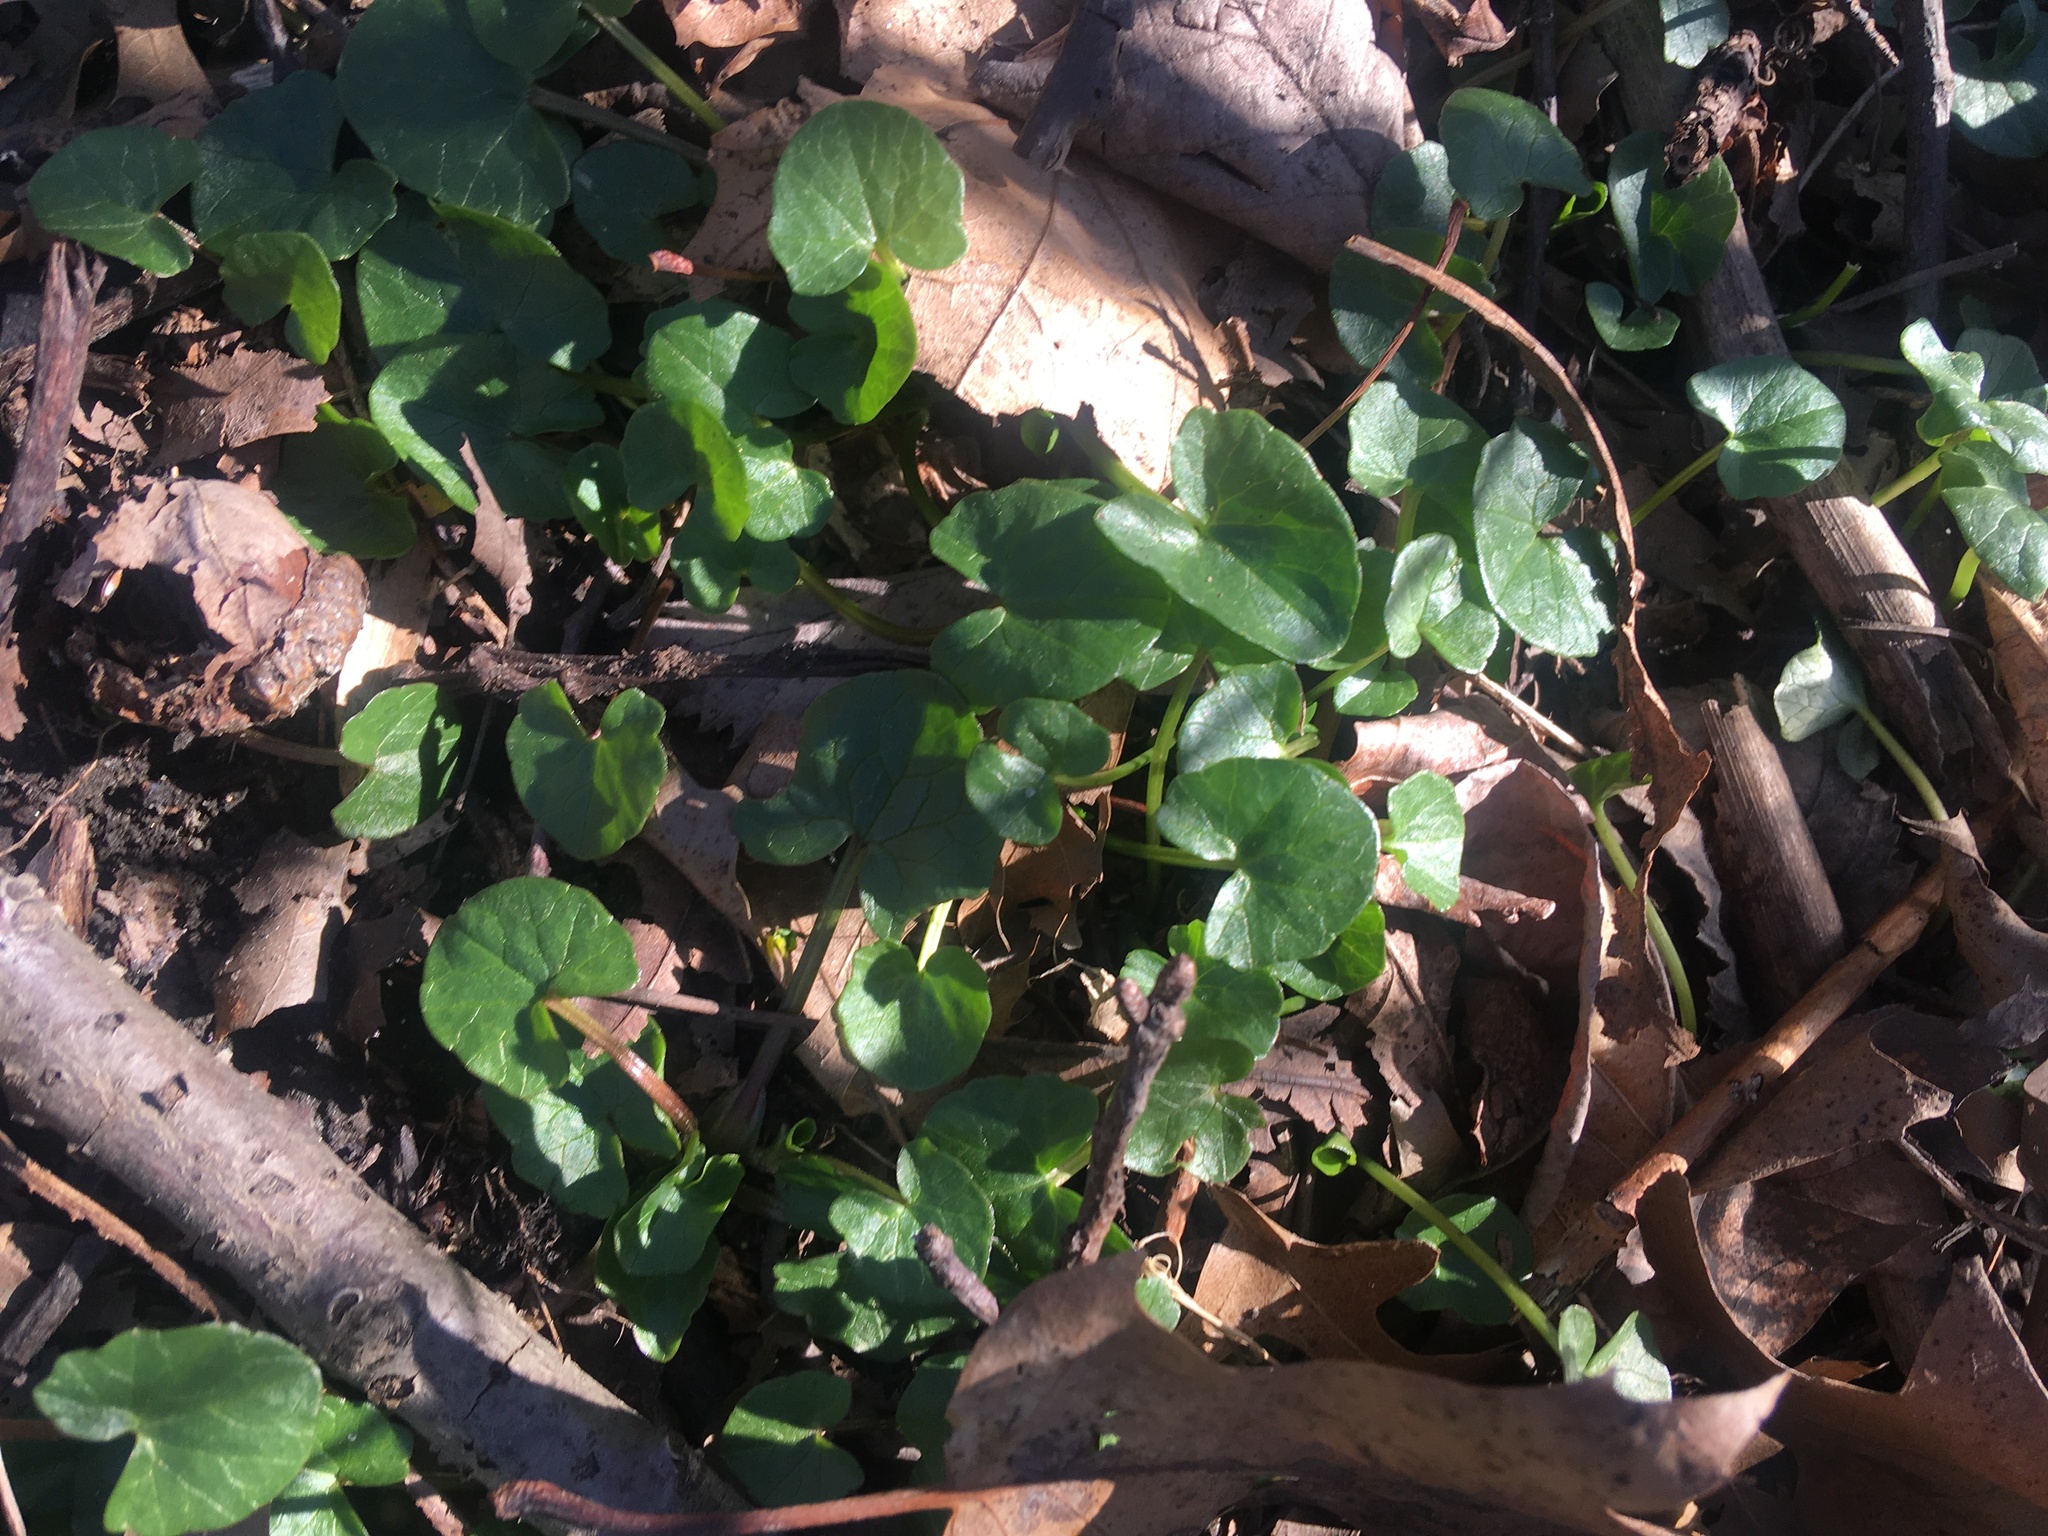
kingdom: Plantae
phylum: Tracheophyta
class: Magnoliopsida
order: Ranunculales
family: Ranunculaceae
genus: Ficaria
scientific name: Ficaria verna
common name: Lesser celandine
